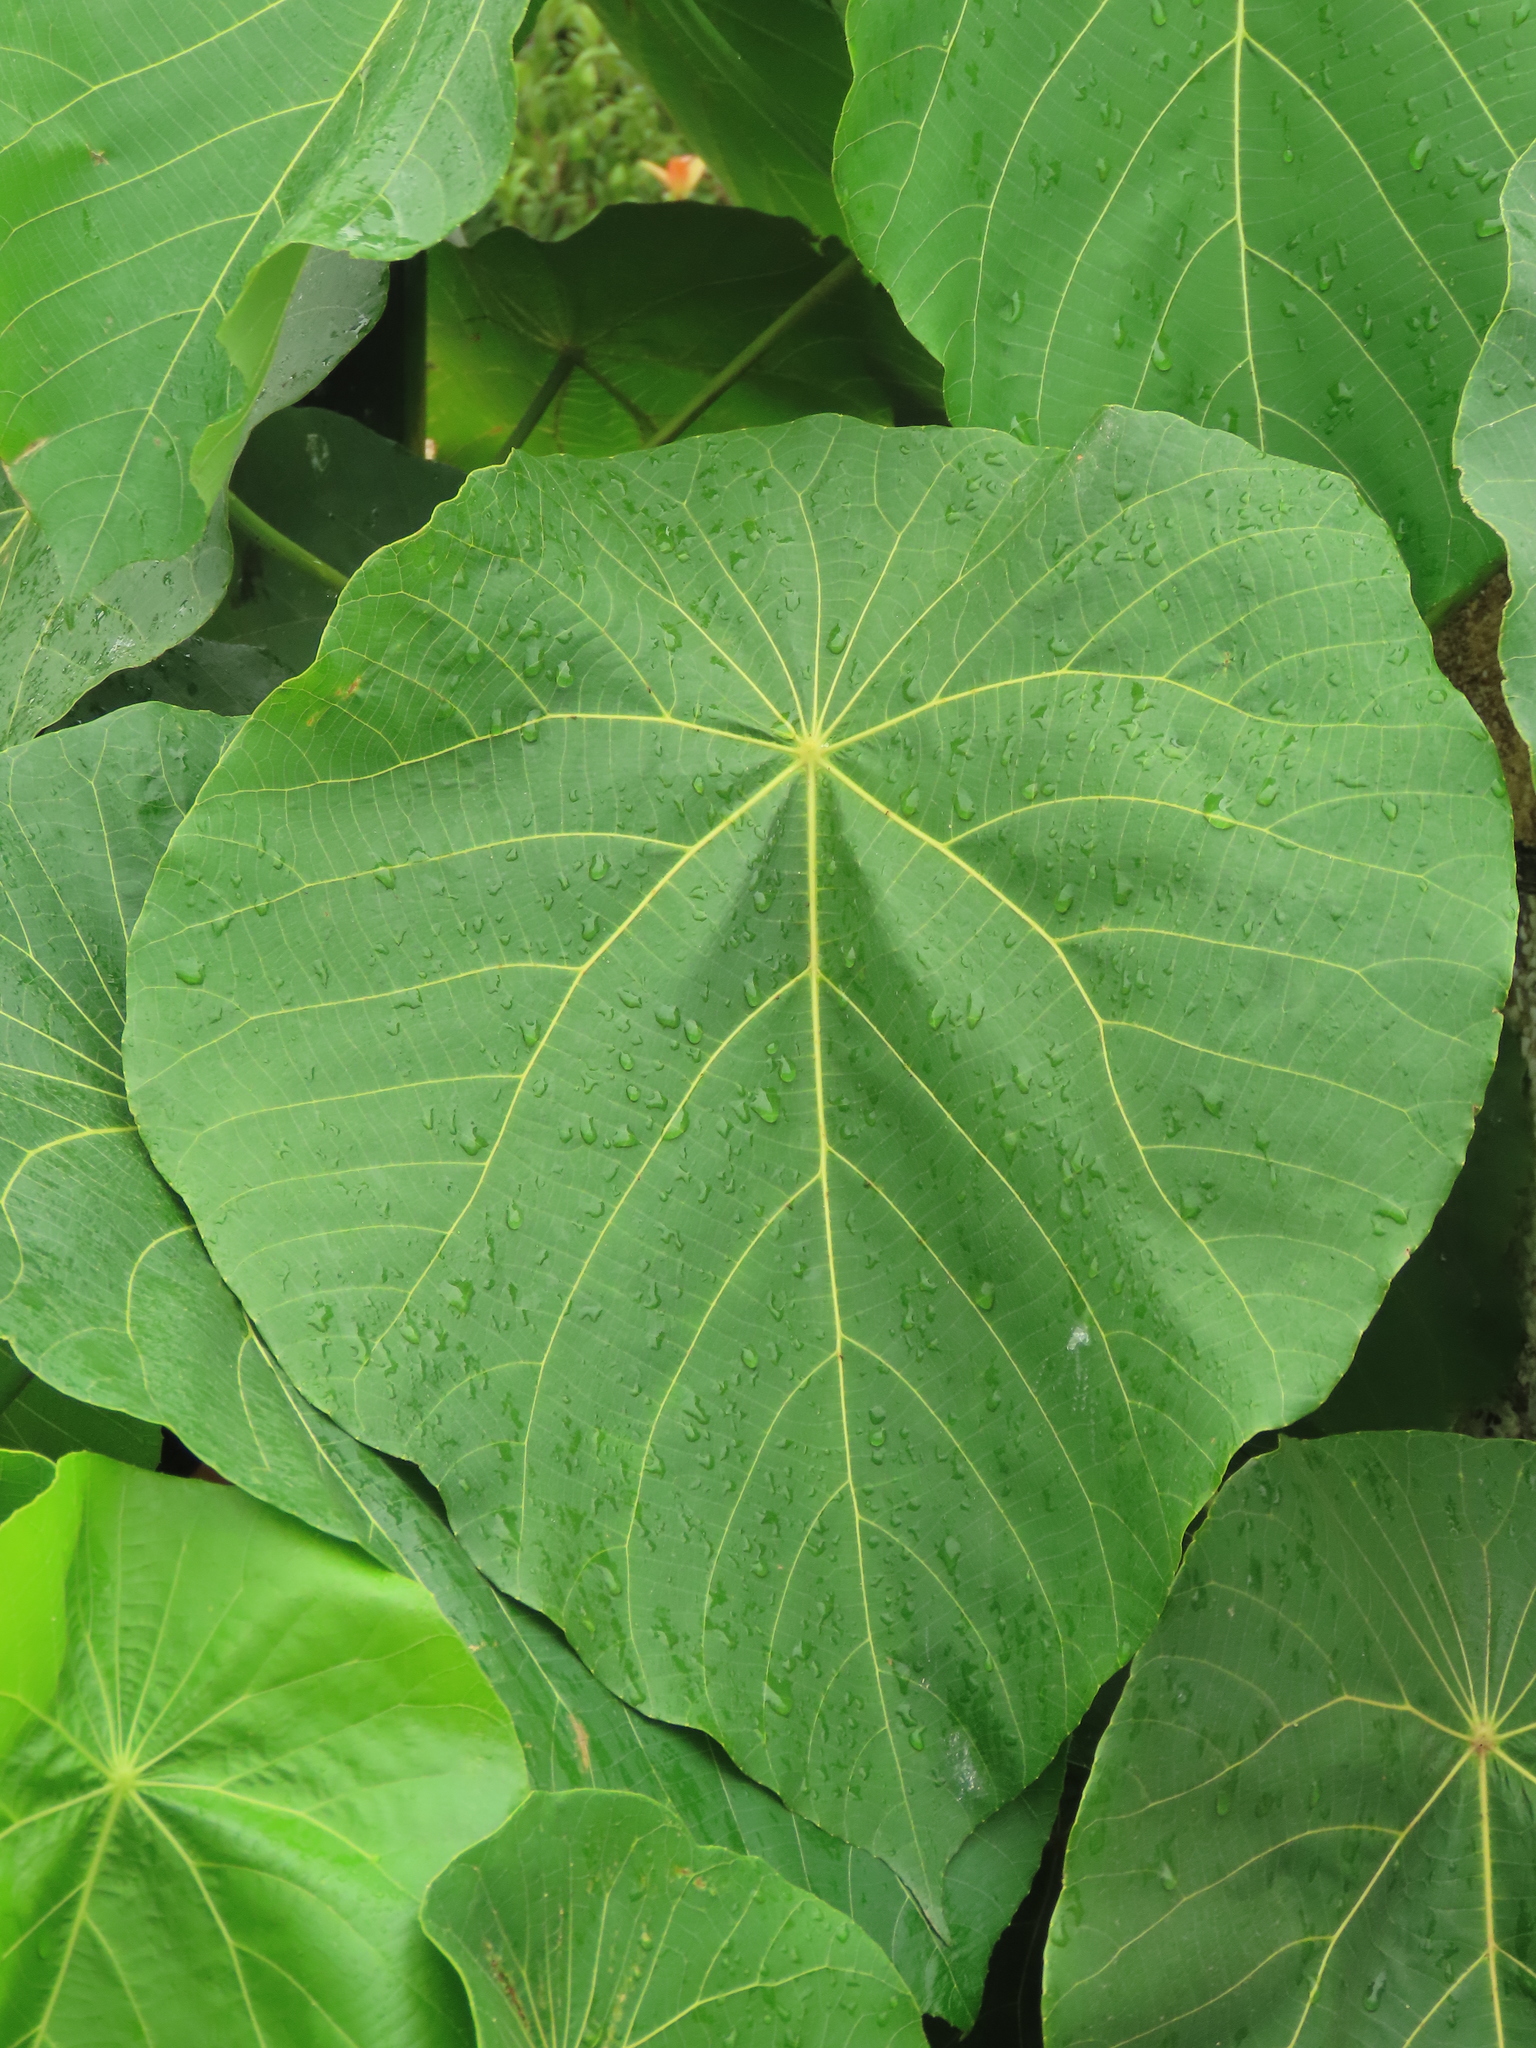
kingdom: Plantae
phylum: Tracheophyta
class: Magnoliopsida
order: Malpighiales
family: Euphorbiaceae
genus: Macaranga
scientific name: Macaranga tanarius
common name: Parasol leaf tree
